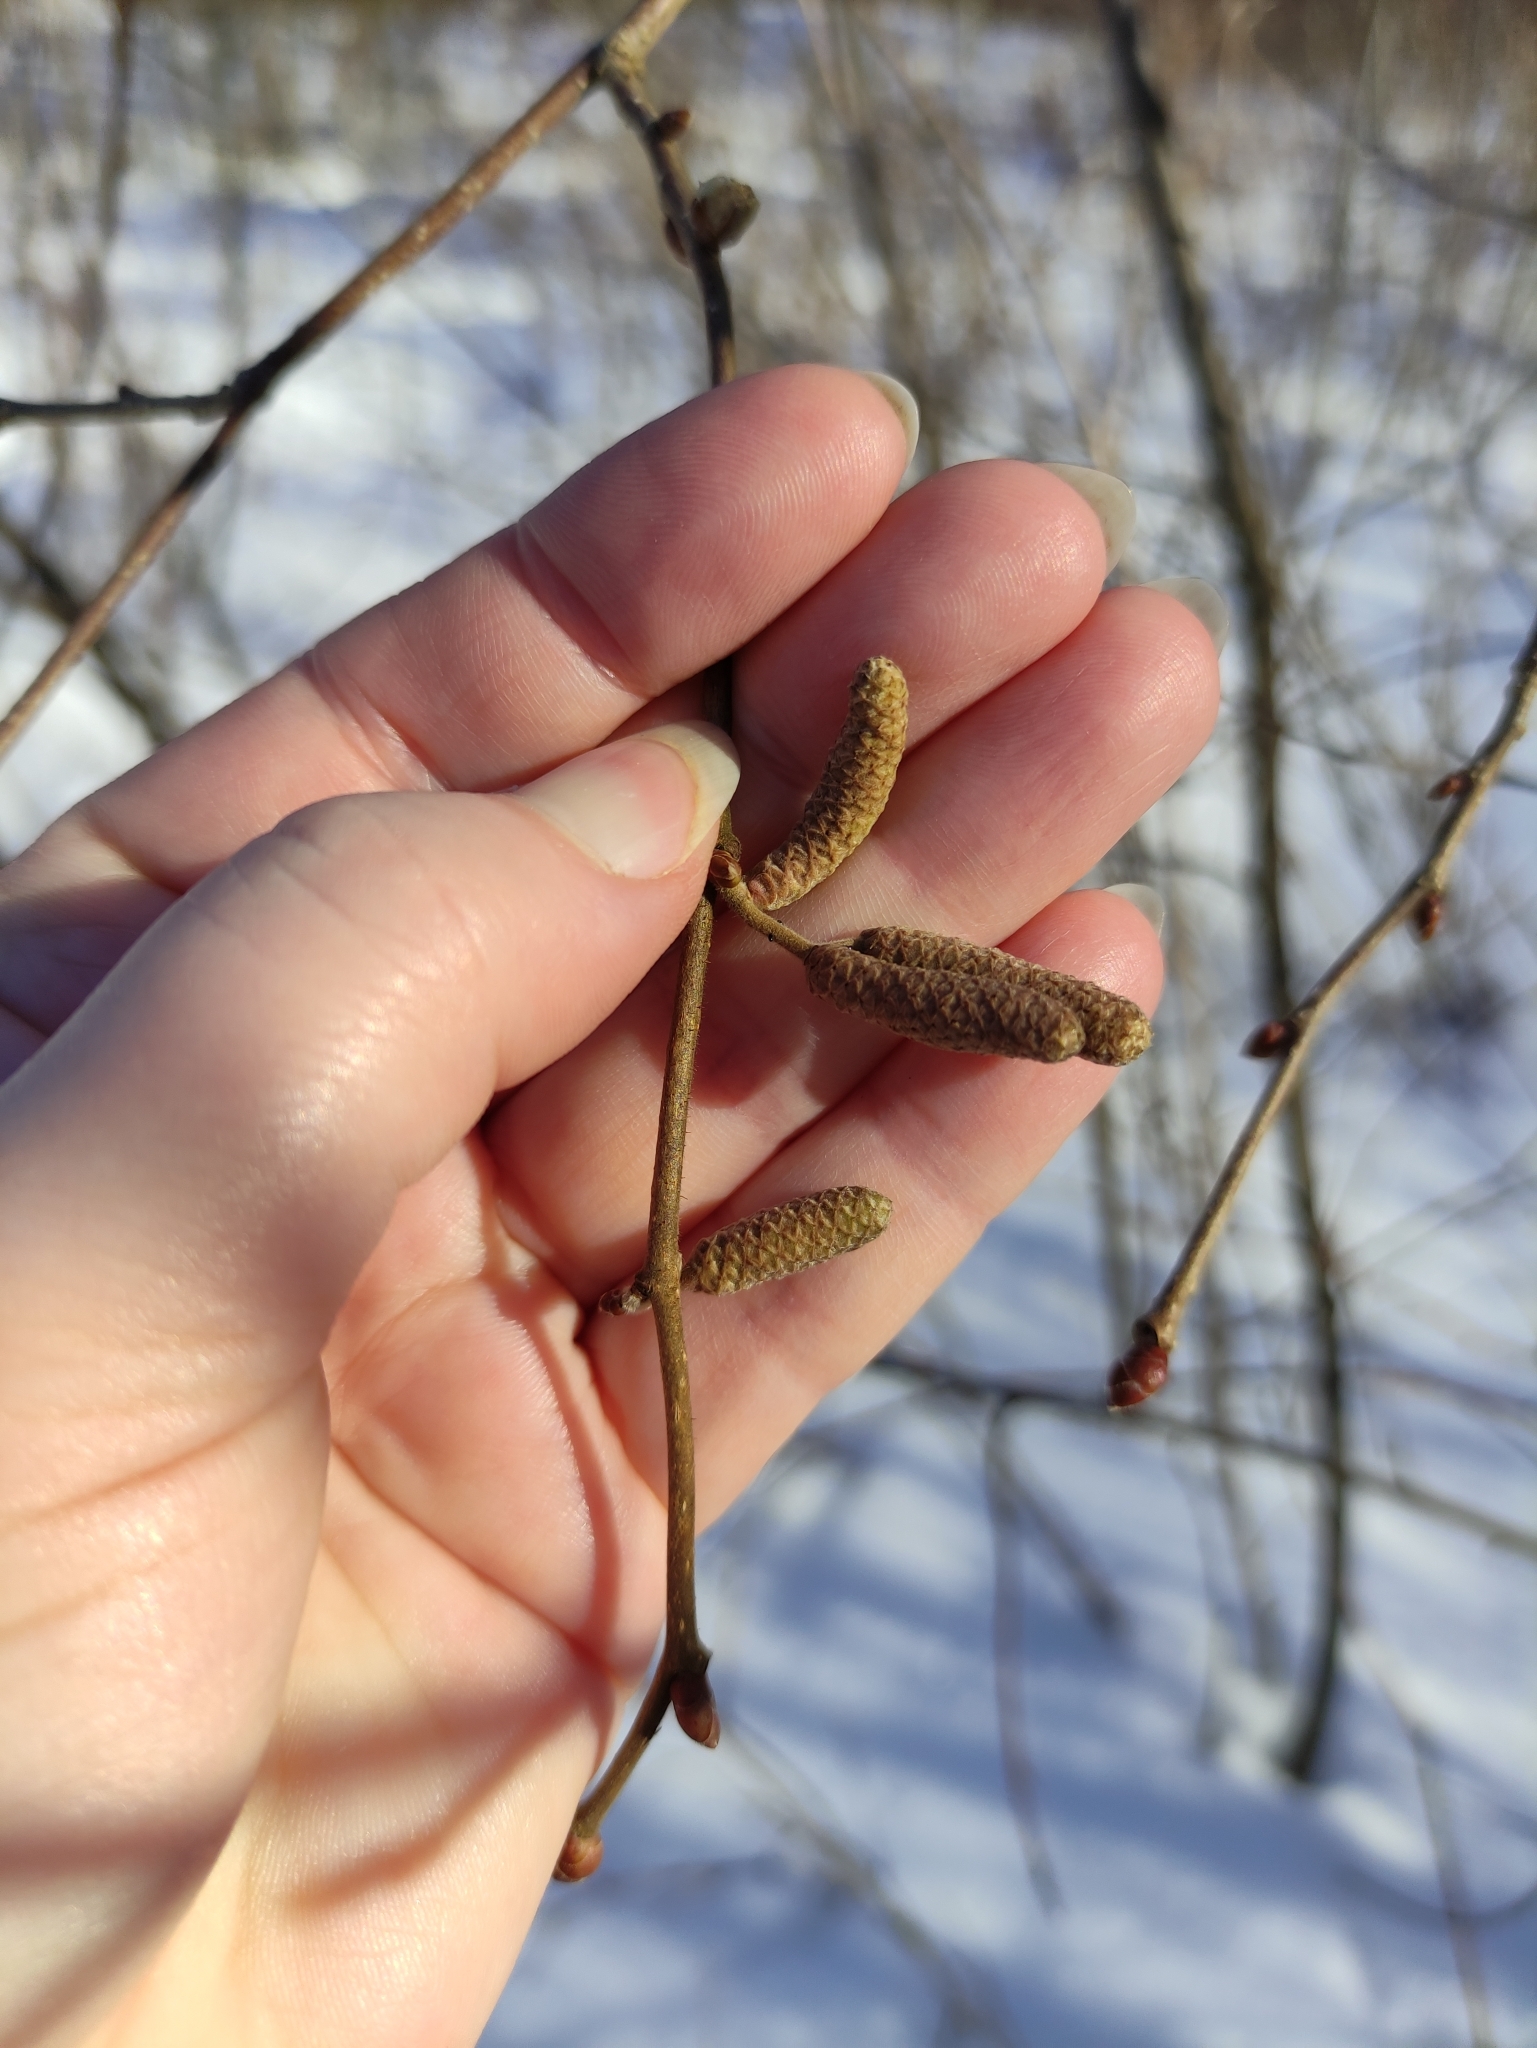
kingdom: Plantae
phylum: Tracheophyta
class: Magnoliopsida
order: Fagales
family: Betulaceae
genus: Corylus
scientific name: Corylus avellana
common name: European hazel
